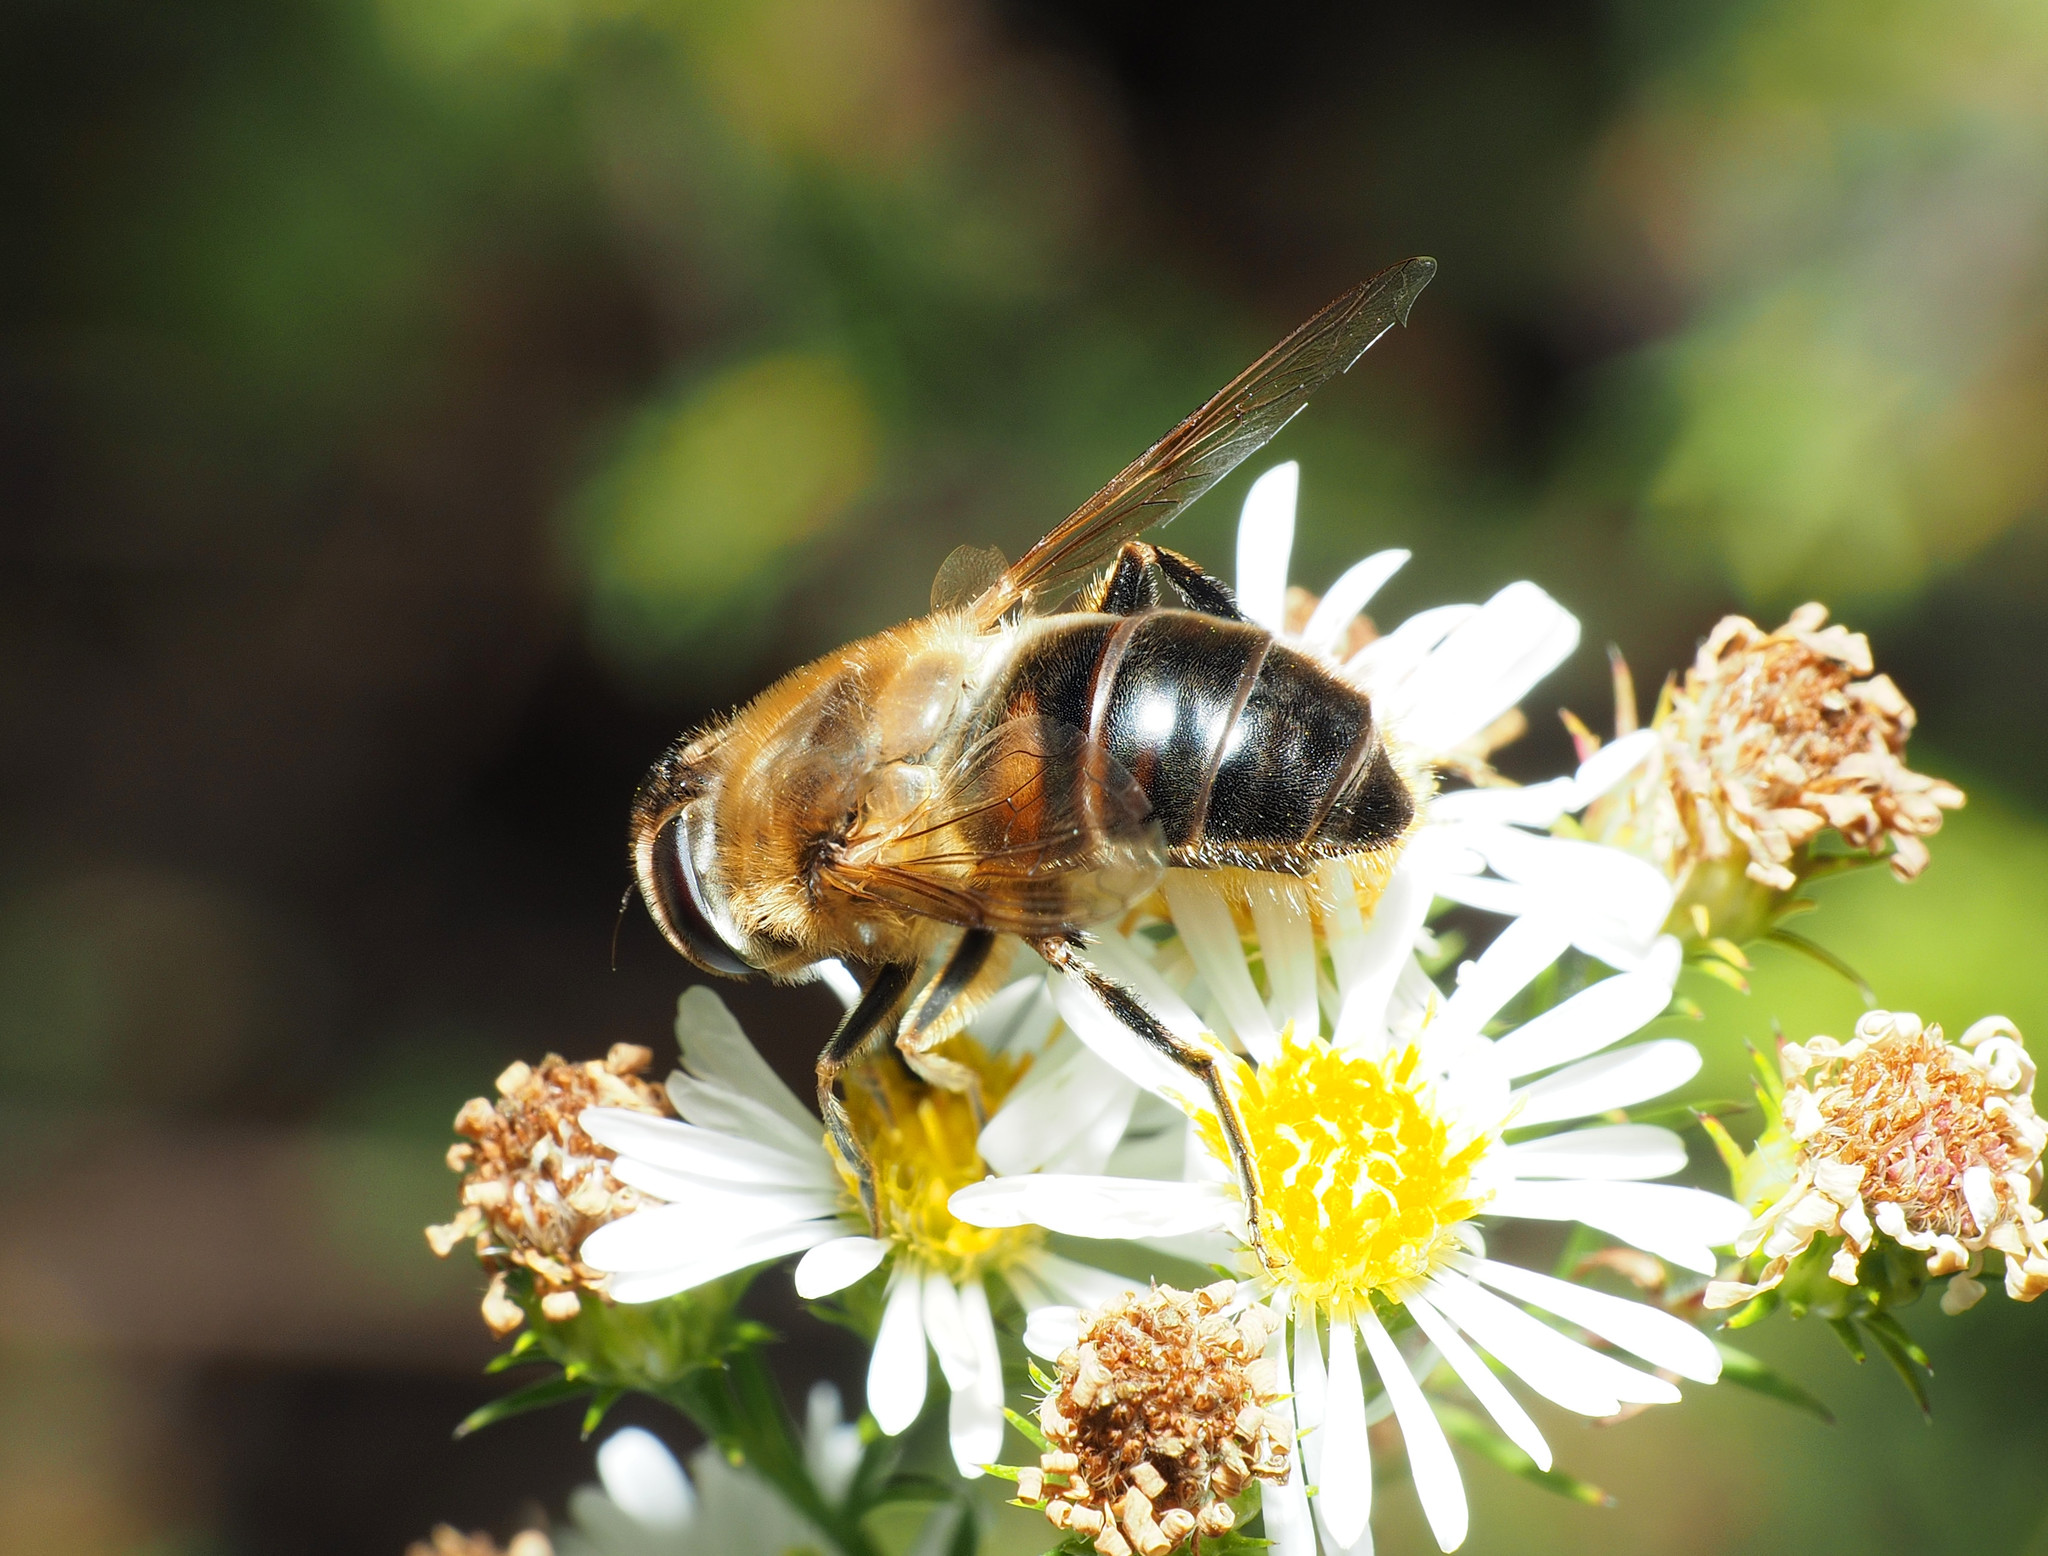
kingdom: Animalia
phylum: Arthropoda
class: Insecta
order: Diptera
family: Syrphidae
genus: Eristalis
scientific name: Eristalis tenax
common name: Drone fly
